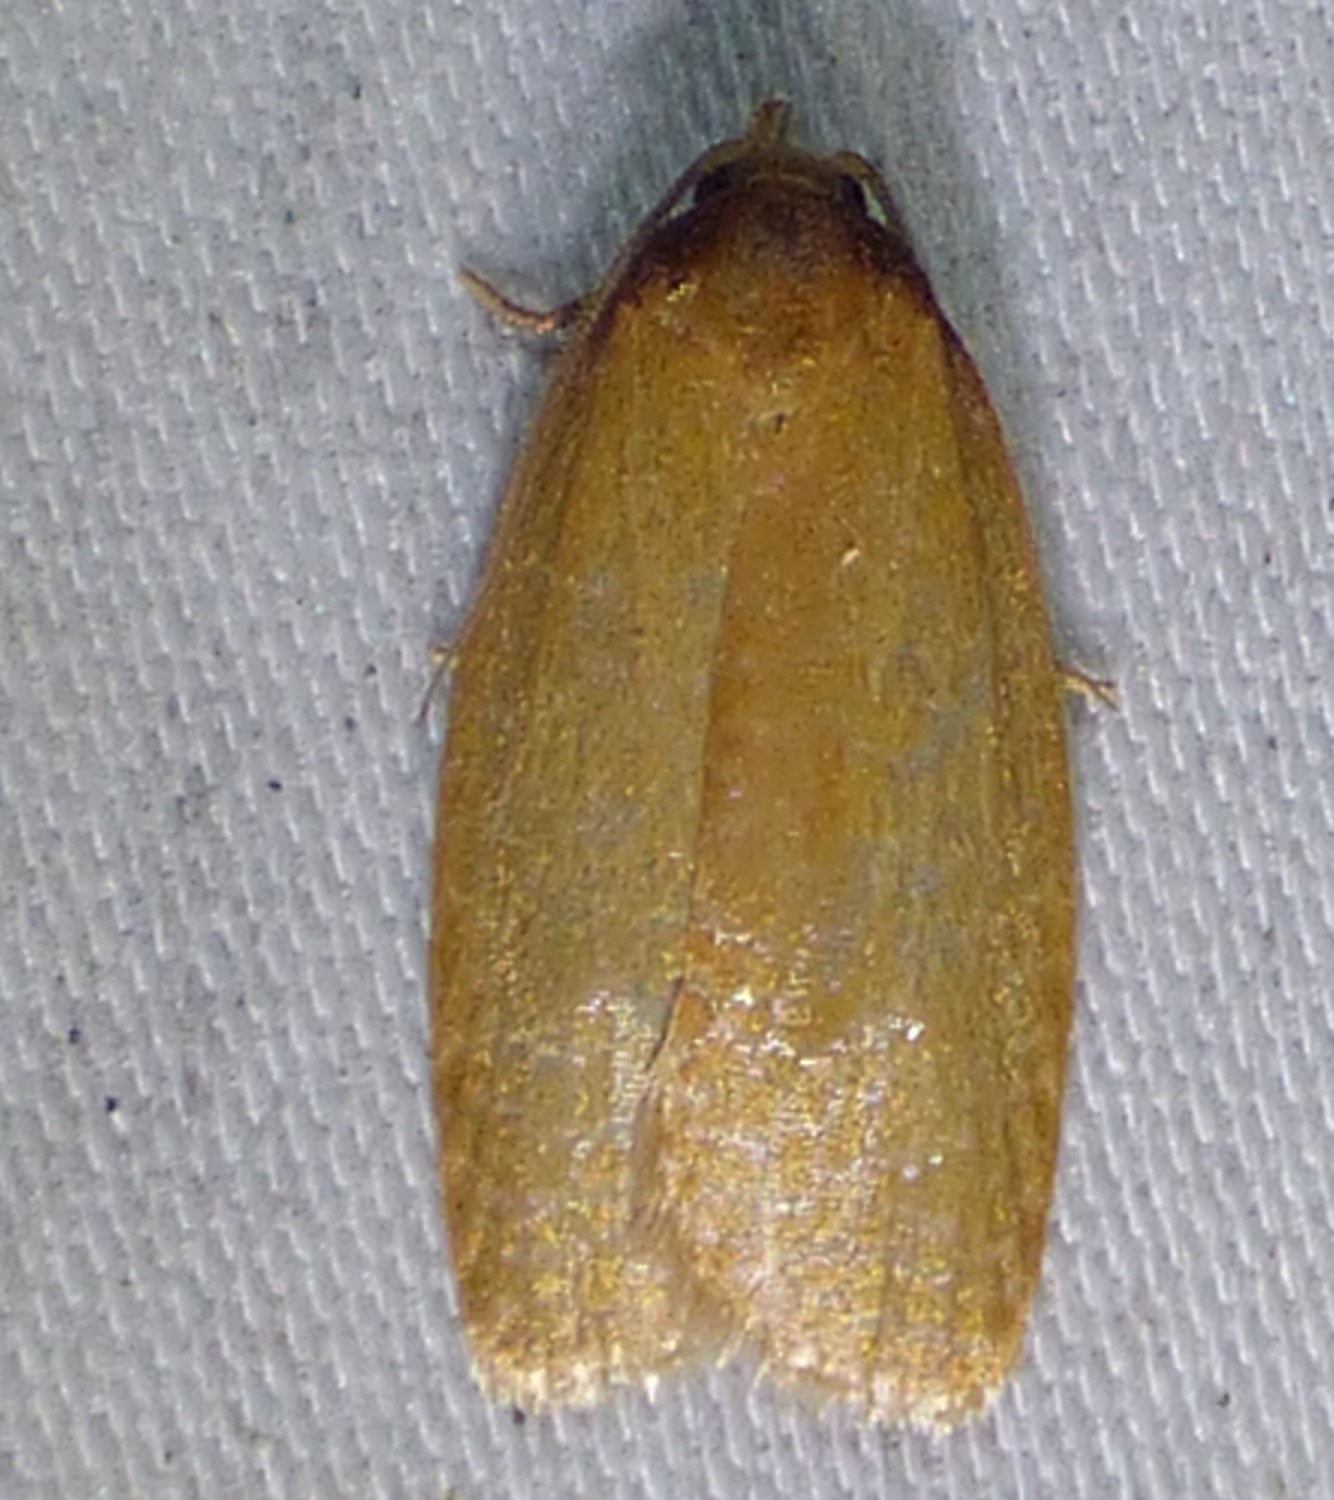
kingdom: Animalia
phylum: Arthropoda
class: Insecta
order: Lepidoptera
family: Tortricidae
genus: Sparganothis
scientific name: Sparganothis distincta
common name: Distinct sparganothis moth
